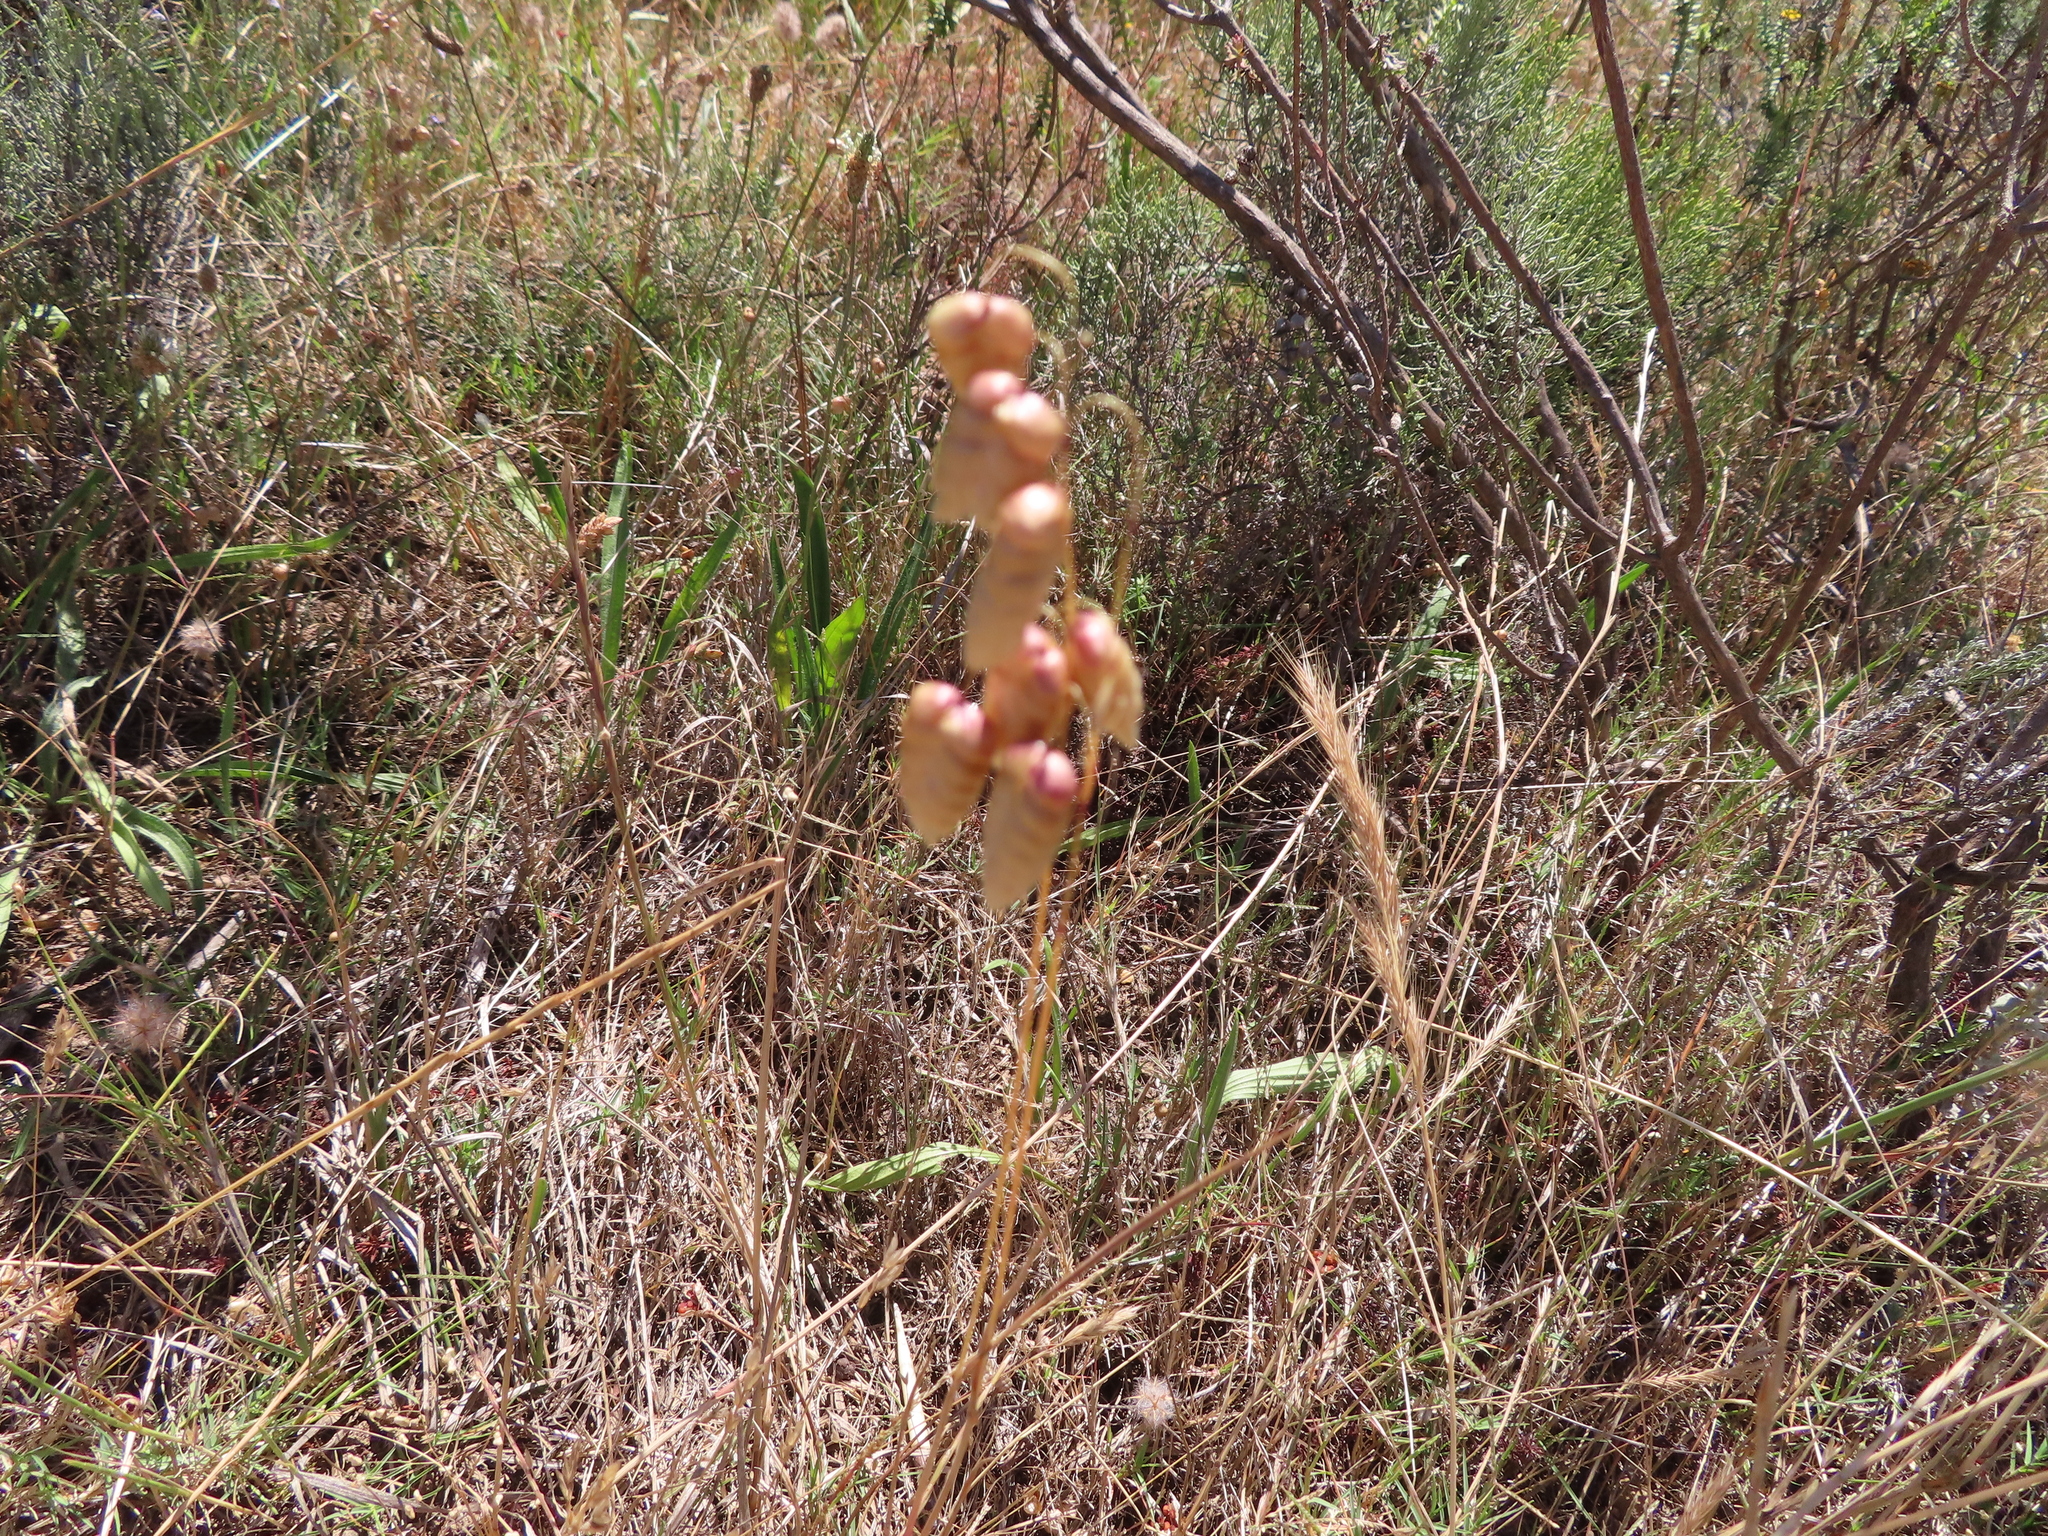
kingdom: Plantae
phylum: Tracheophyta
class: Liliopsida
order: Poales
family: Poaceae
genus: Briza
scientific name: Briza maxima
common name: Big quakinggrass
